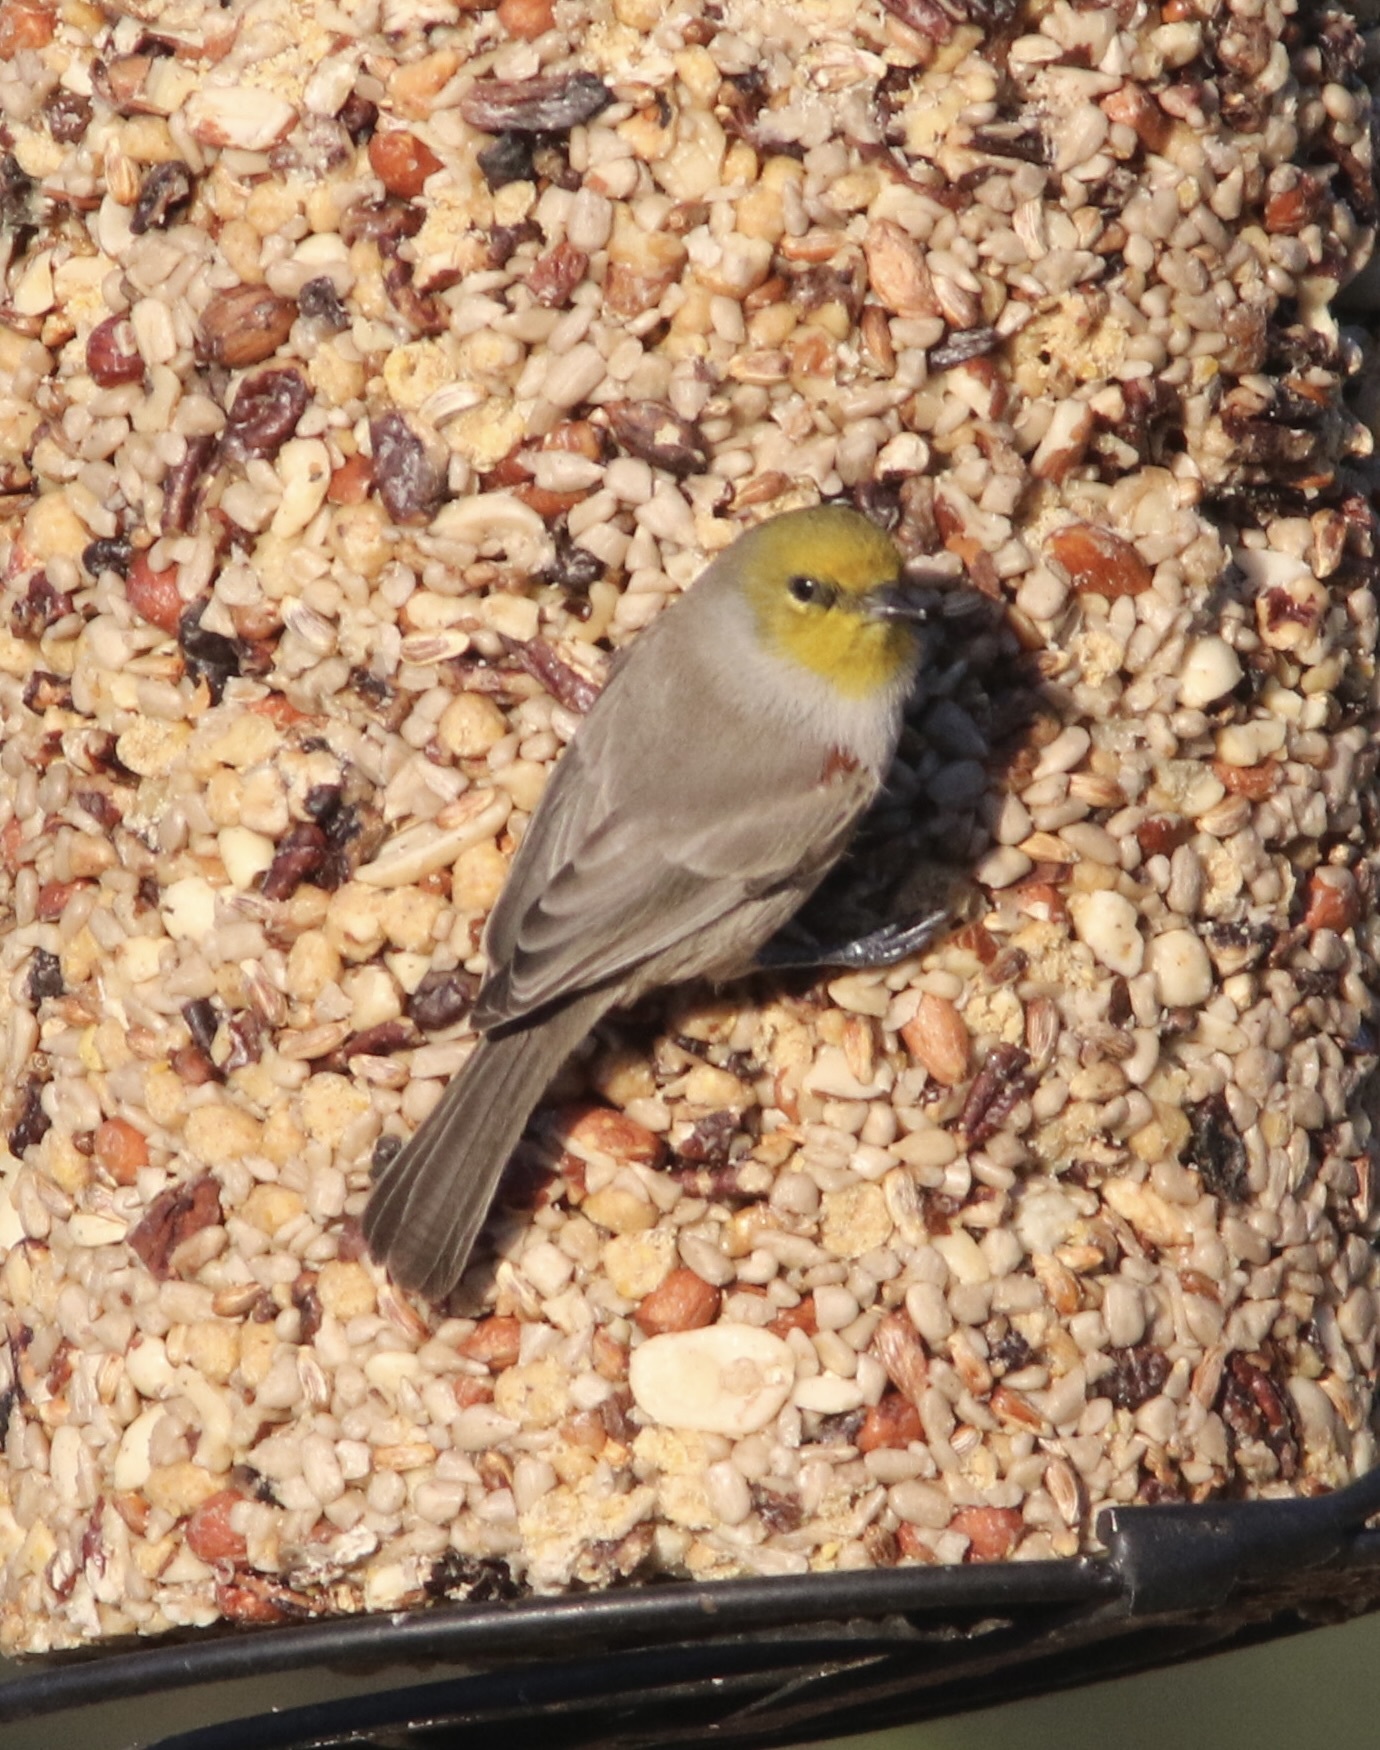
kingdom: Animalia
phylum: Chordata
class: Aves
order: Passeriformes
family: Remizidae
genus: Auriparus
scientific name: Auriparus flaviceps
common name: Verdin
